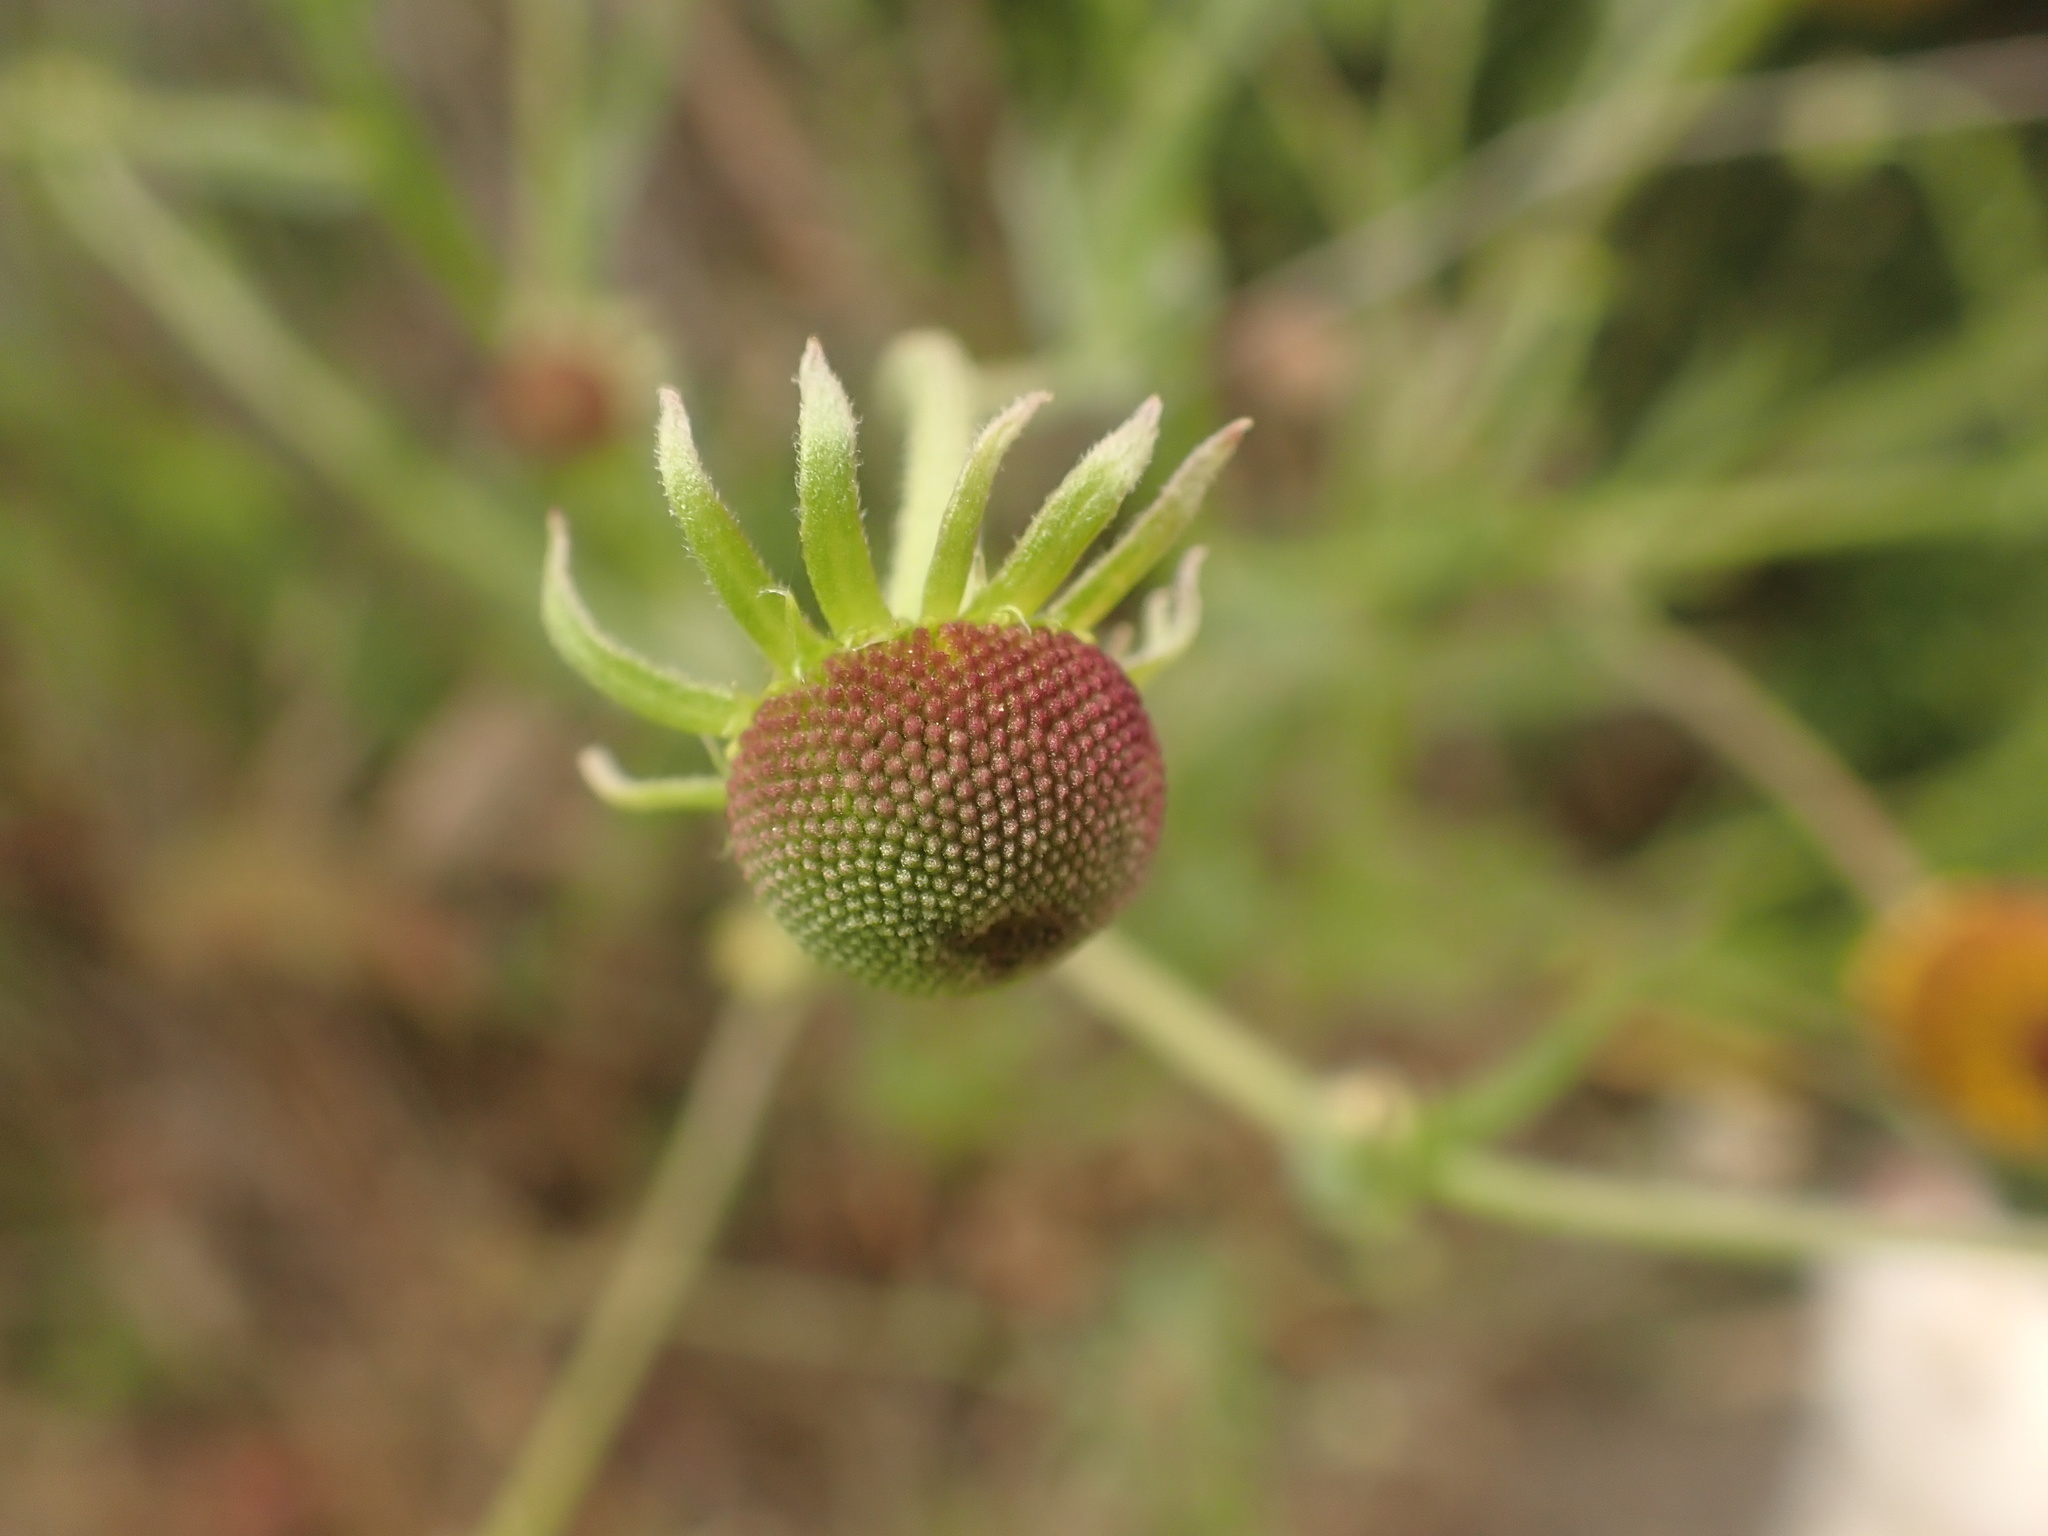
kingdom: Plantae
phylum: Tracheophyta
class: Magnoliopsida
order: Asterales
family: Asteraceae
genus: Helenium
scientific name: Helenium puberulum
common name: Sneezewort
